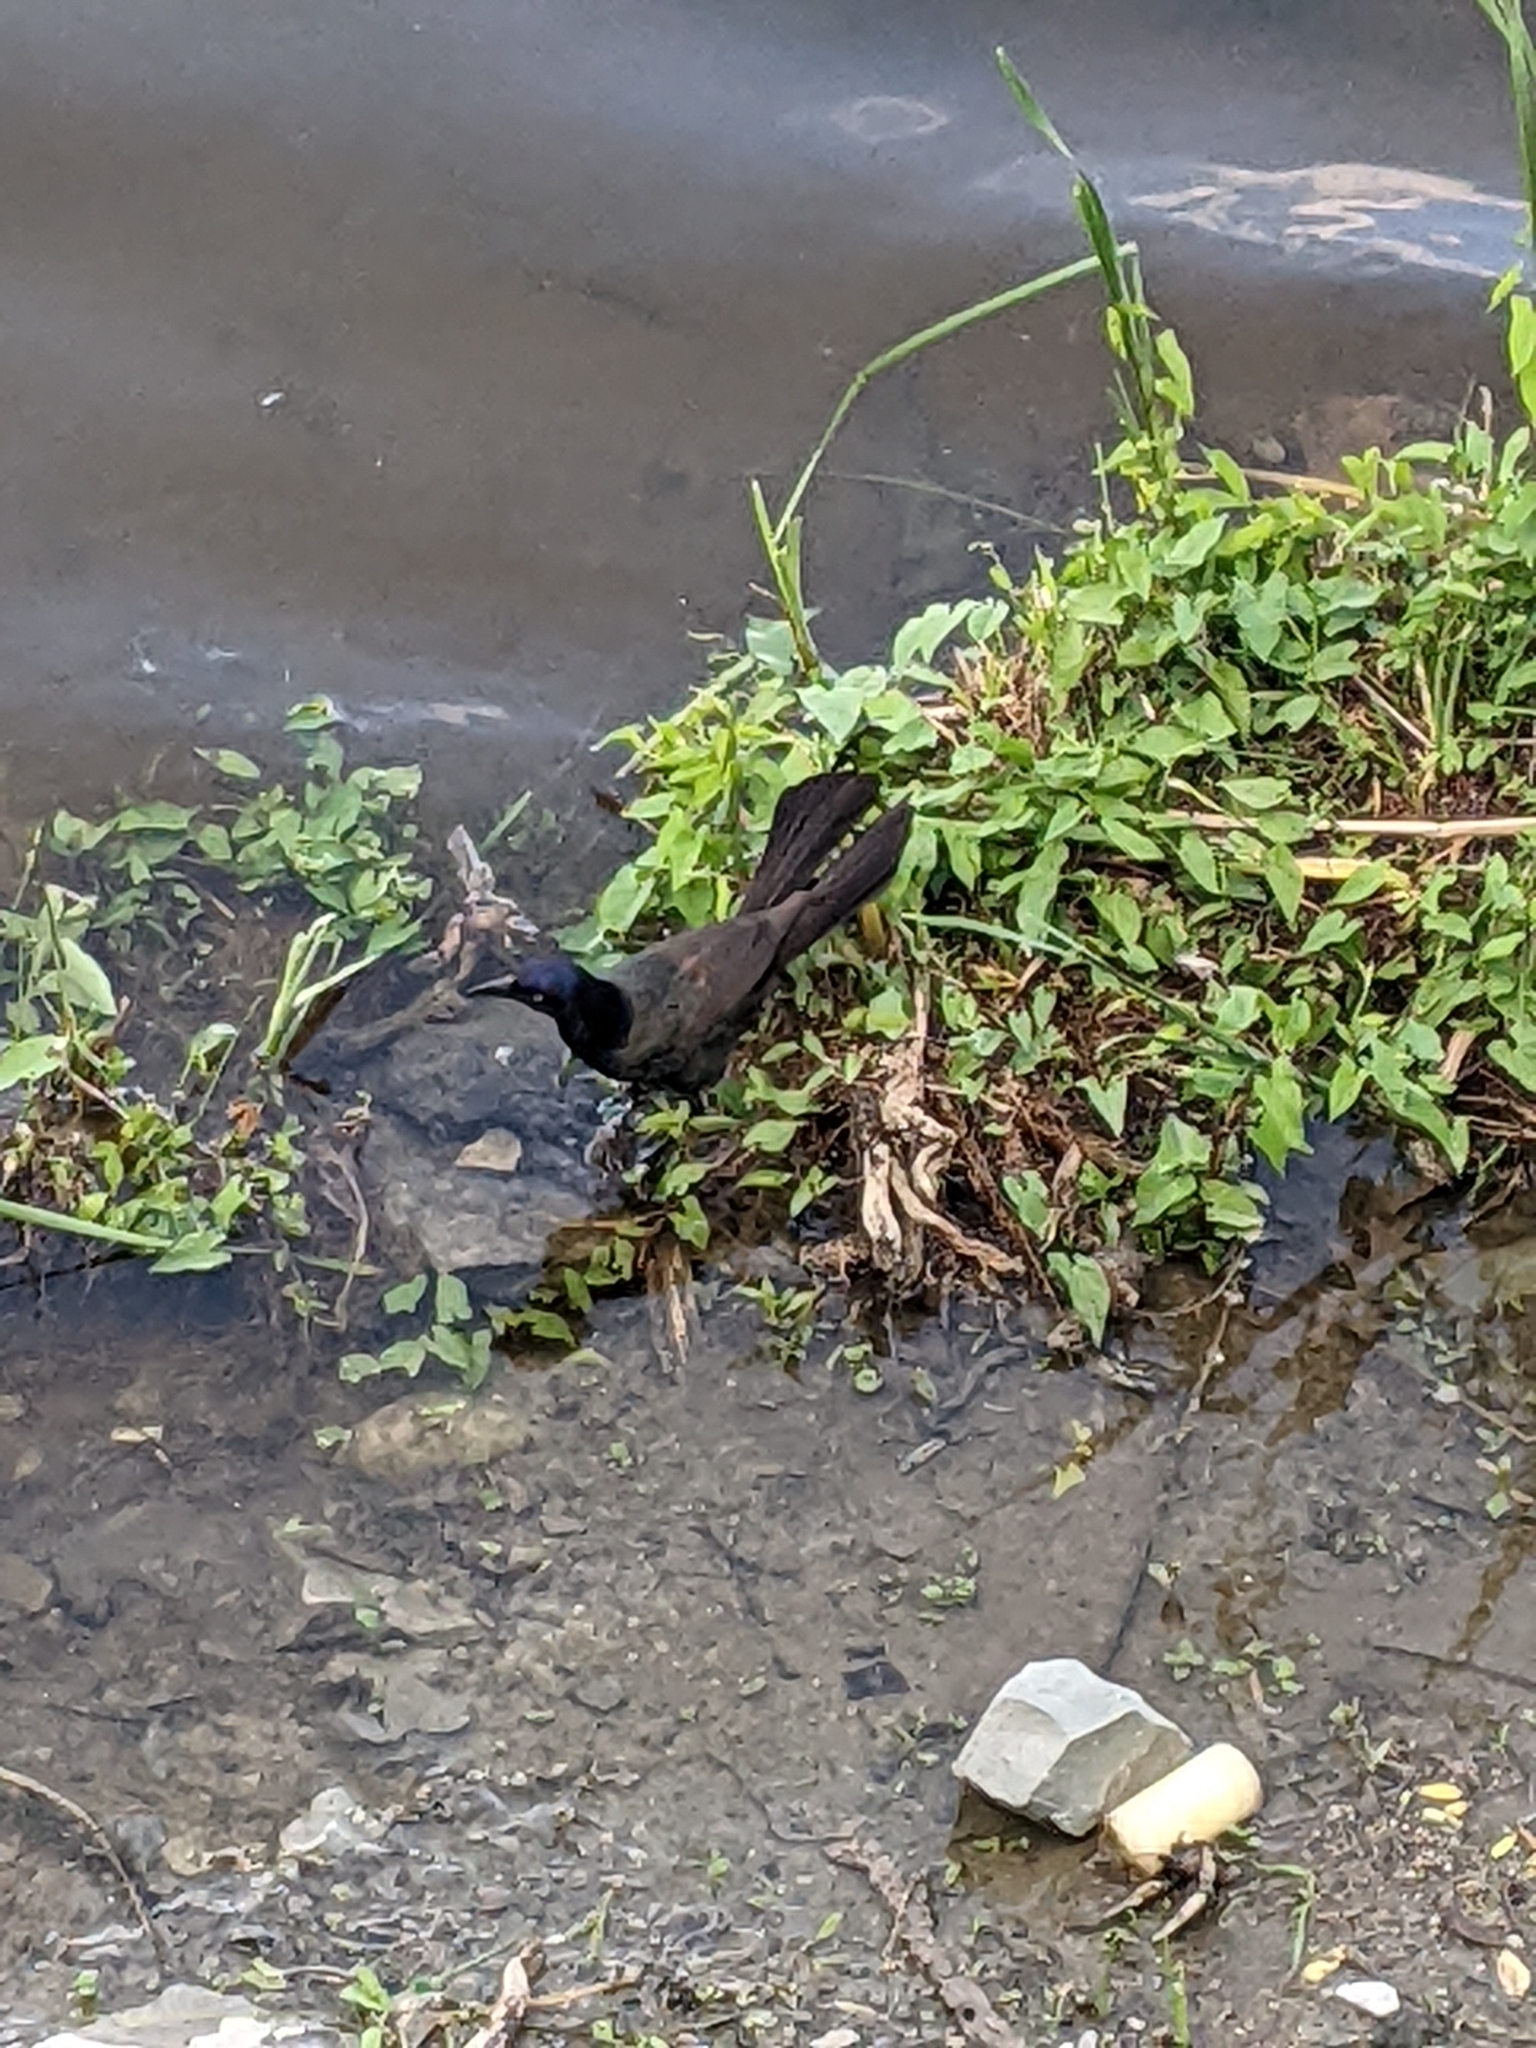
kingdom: Animalia
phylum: Chordata
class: Aves
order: Passeriformes
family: Icteridae
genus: Quiscalus
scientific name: Quiscalus quiscula
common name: Common grackle
